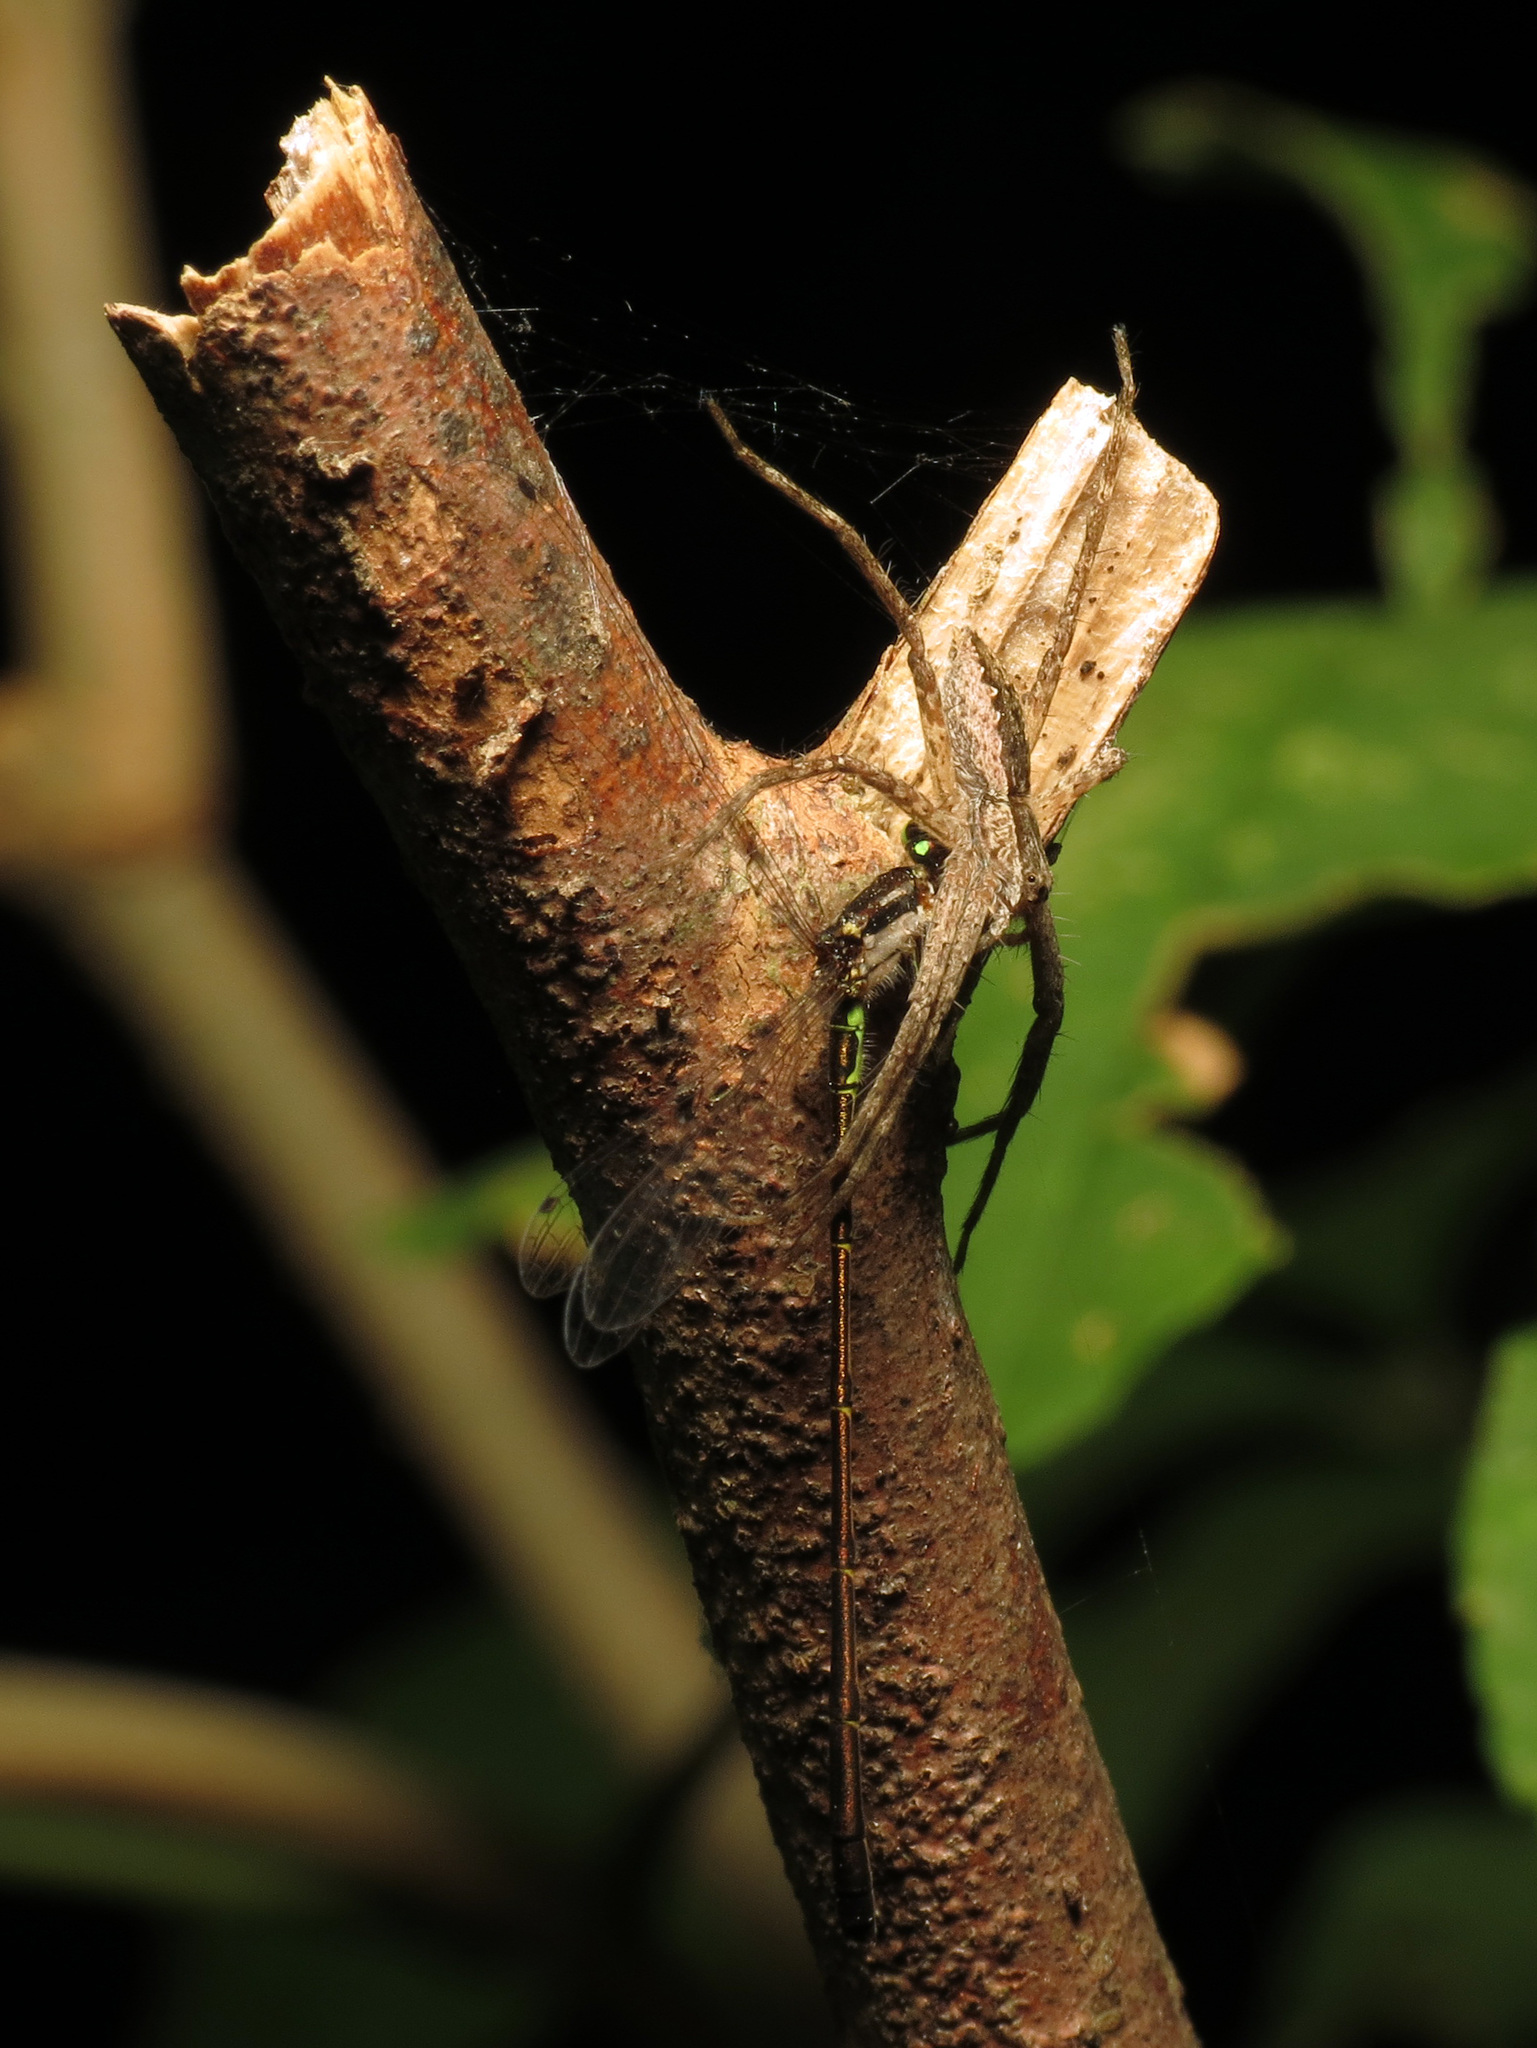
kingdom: Animalia
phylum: Arthropoda
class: Insecta
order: Odonata
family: Coenagrionidae
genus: Ischnura
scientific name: Ischnura posita
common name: Fragile forktail
